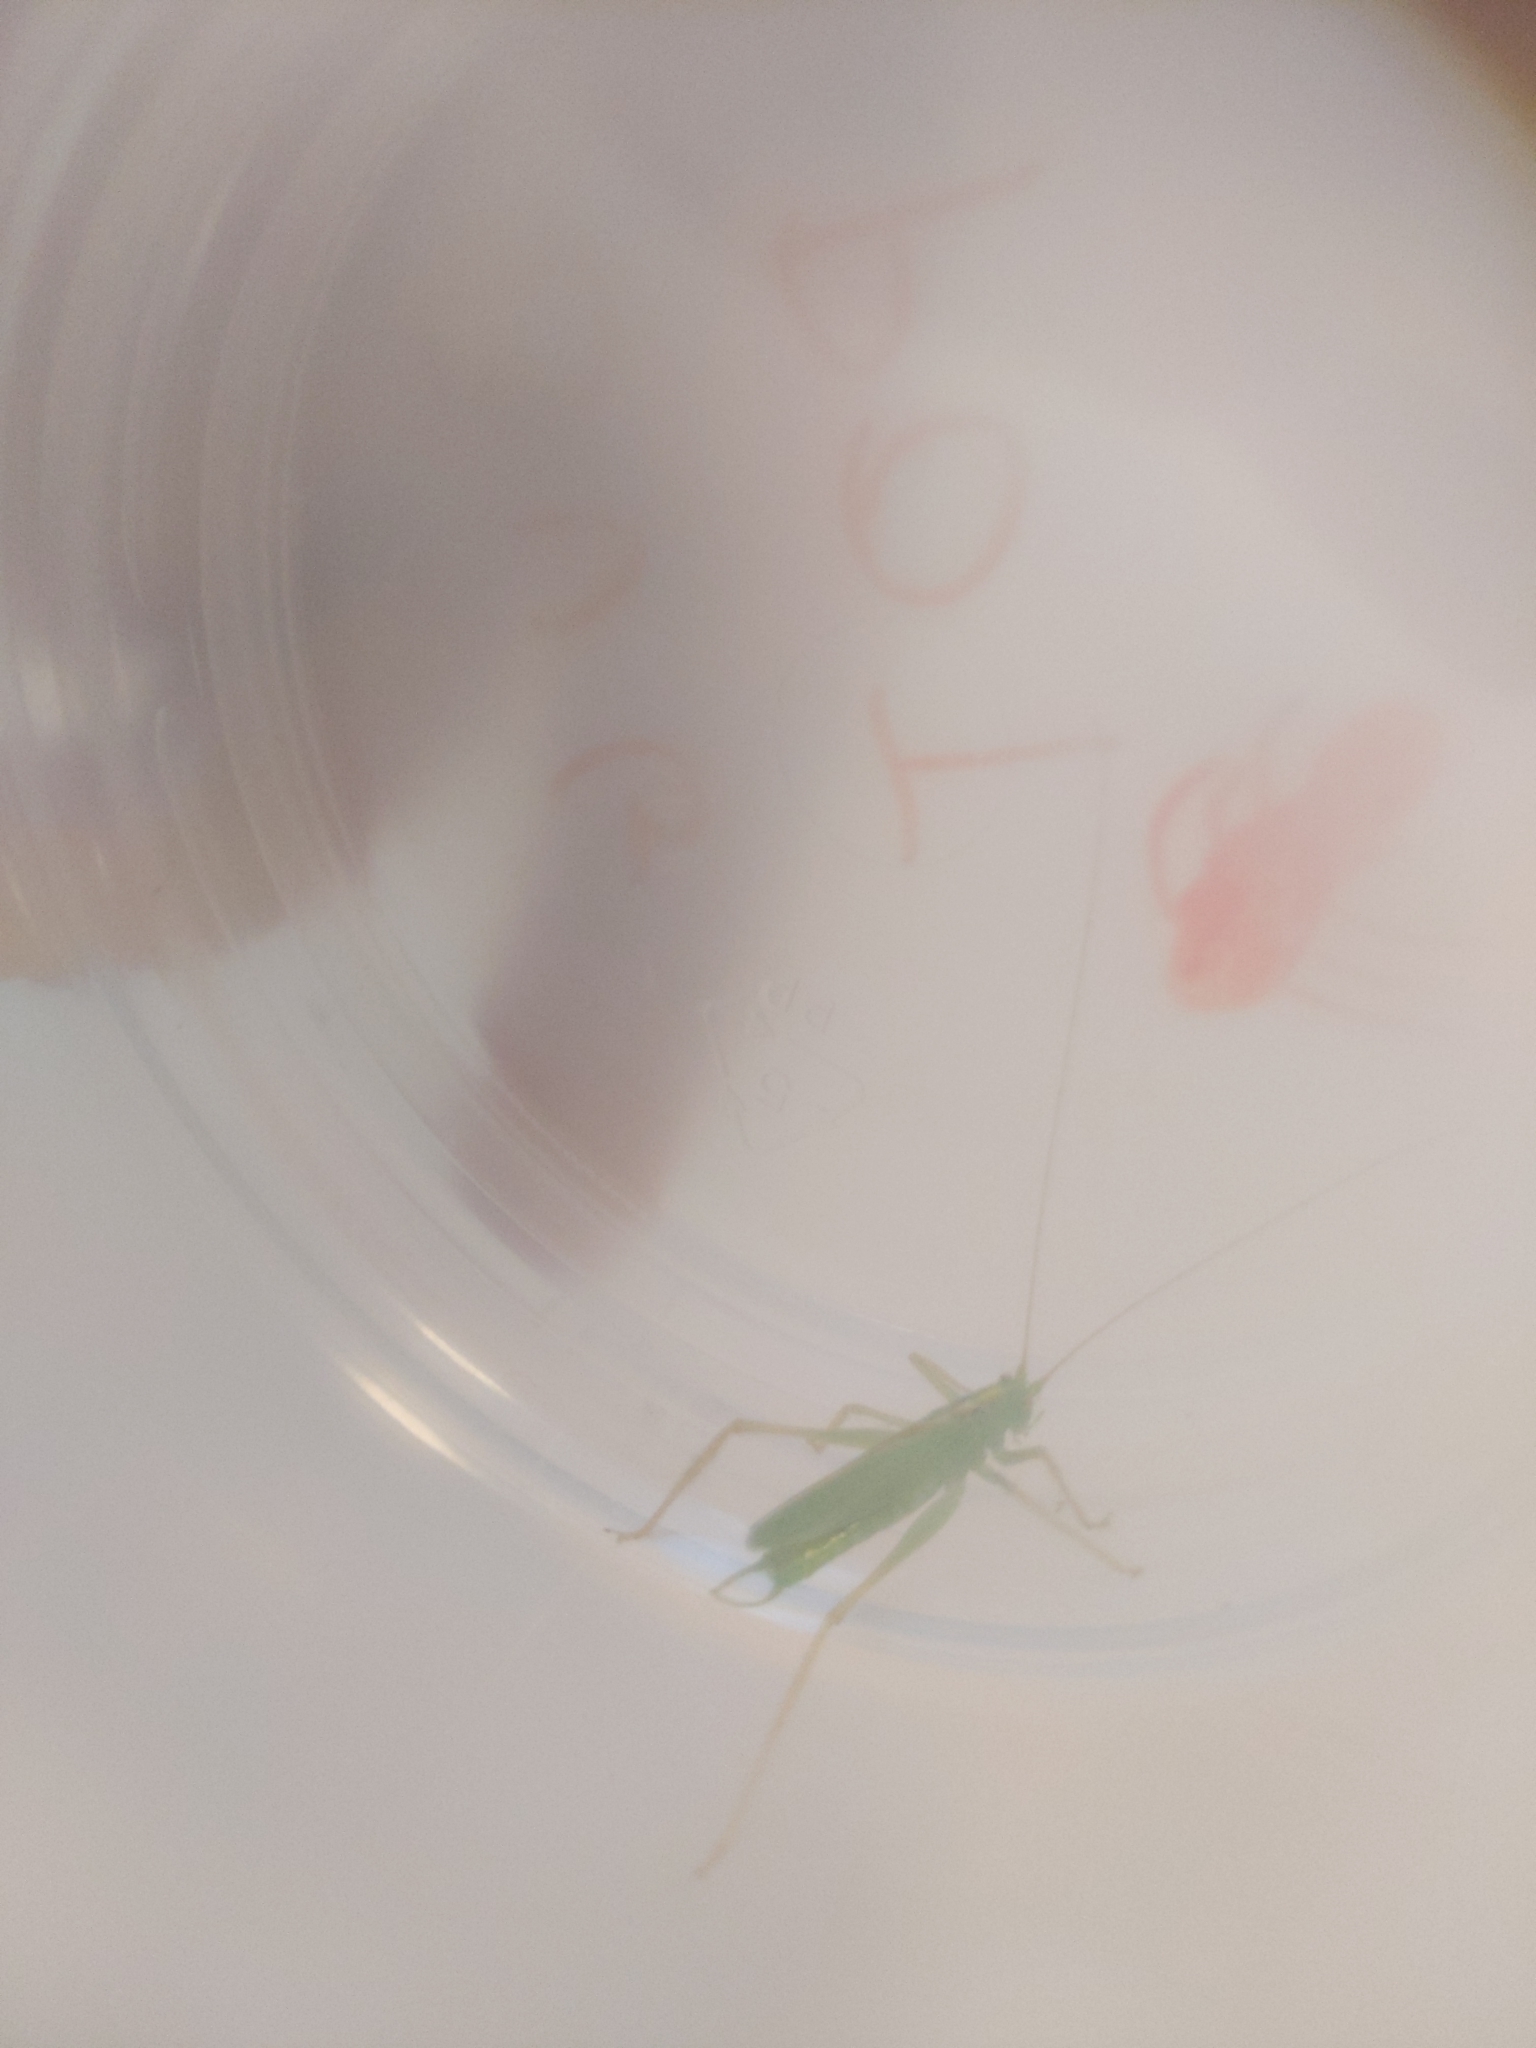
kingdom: Animalia
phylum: Arthropoda
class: Insecta
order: Orthoptera
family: Tettigoniidae
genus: Meconema
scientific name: Meconema thalassinum
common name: Oak bush-cricket
